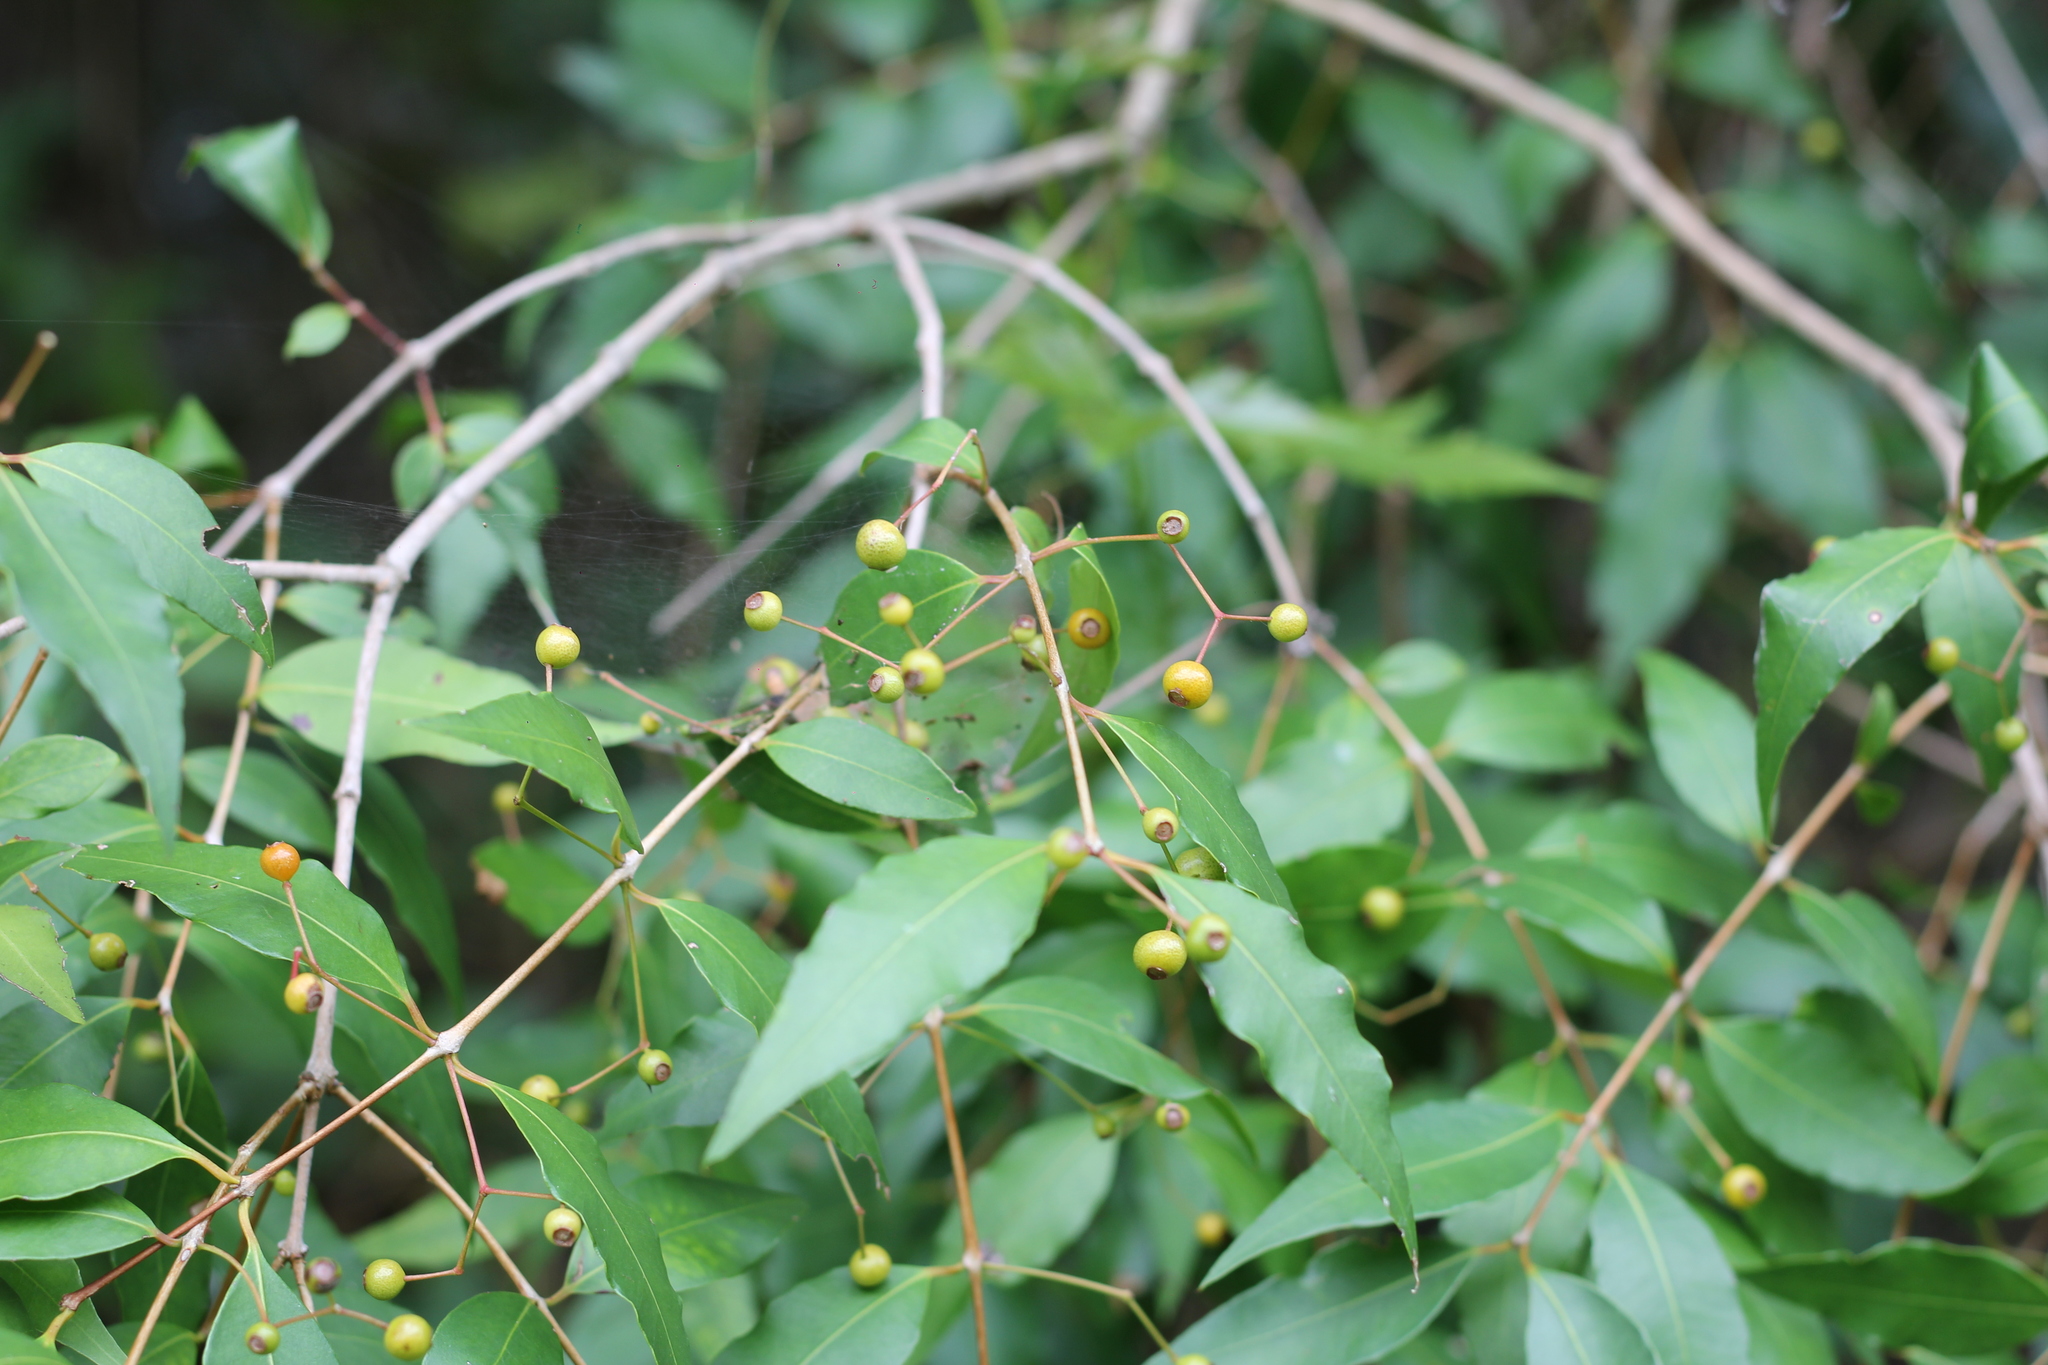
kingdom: Plantae
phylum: Tracheophyta
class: Magnoliopsida
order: Myrtales
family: Myrtaceae
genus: Blepharocalyx
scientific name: Blepharocalyx salicifolius
